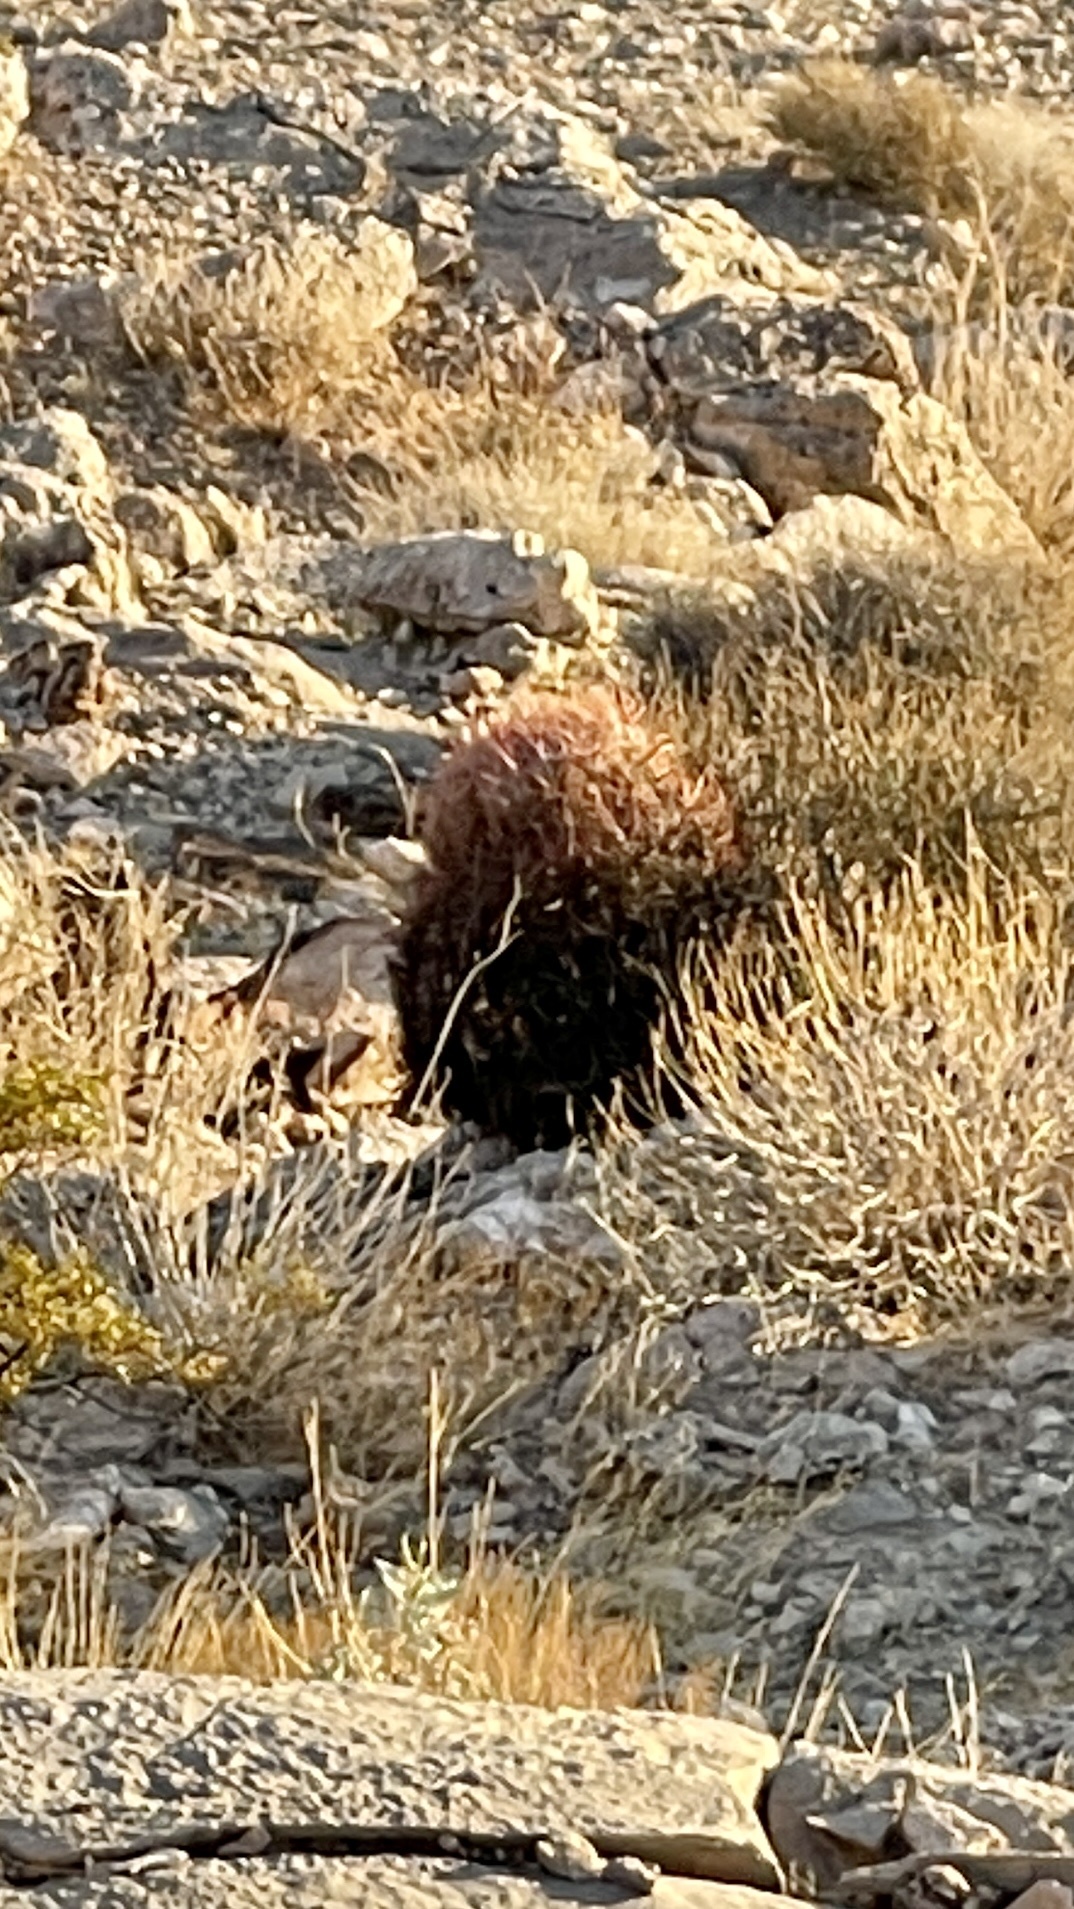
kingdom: Plantae
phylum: Tracheophyta
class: Magnoliopsida
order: Caryophyllales
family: Cactaceae
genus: Ferocactus
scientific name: Ferocactus cylindraceus
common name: California barrel cactus
